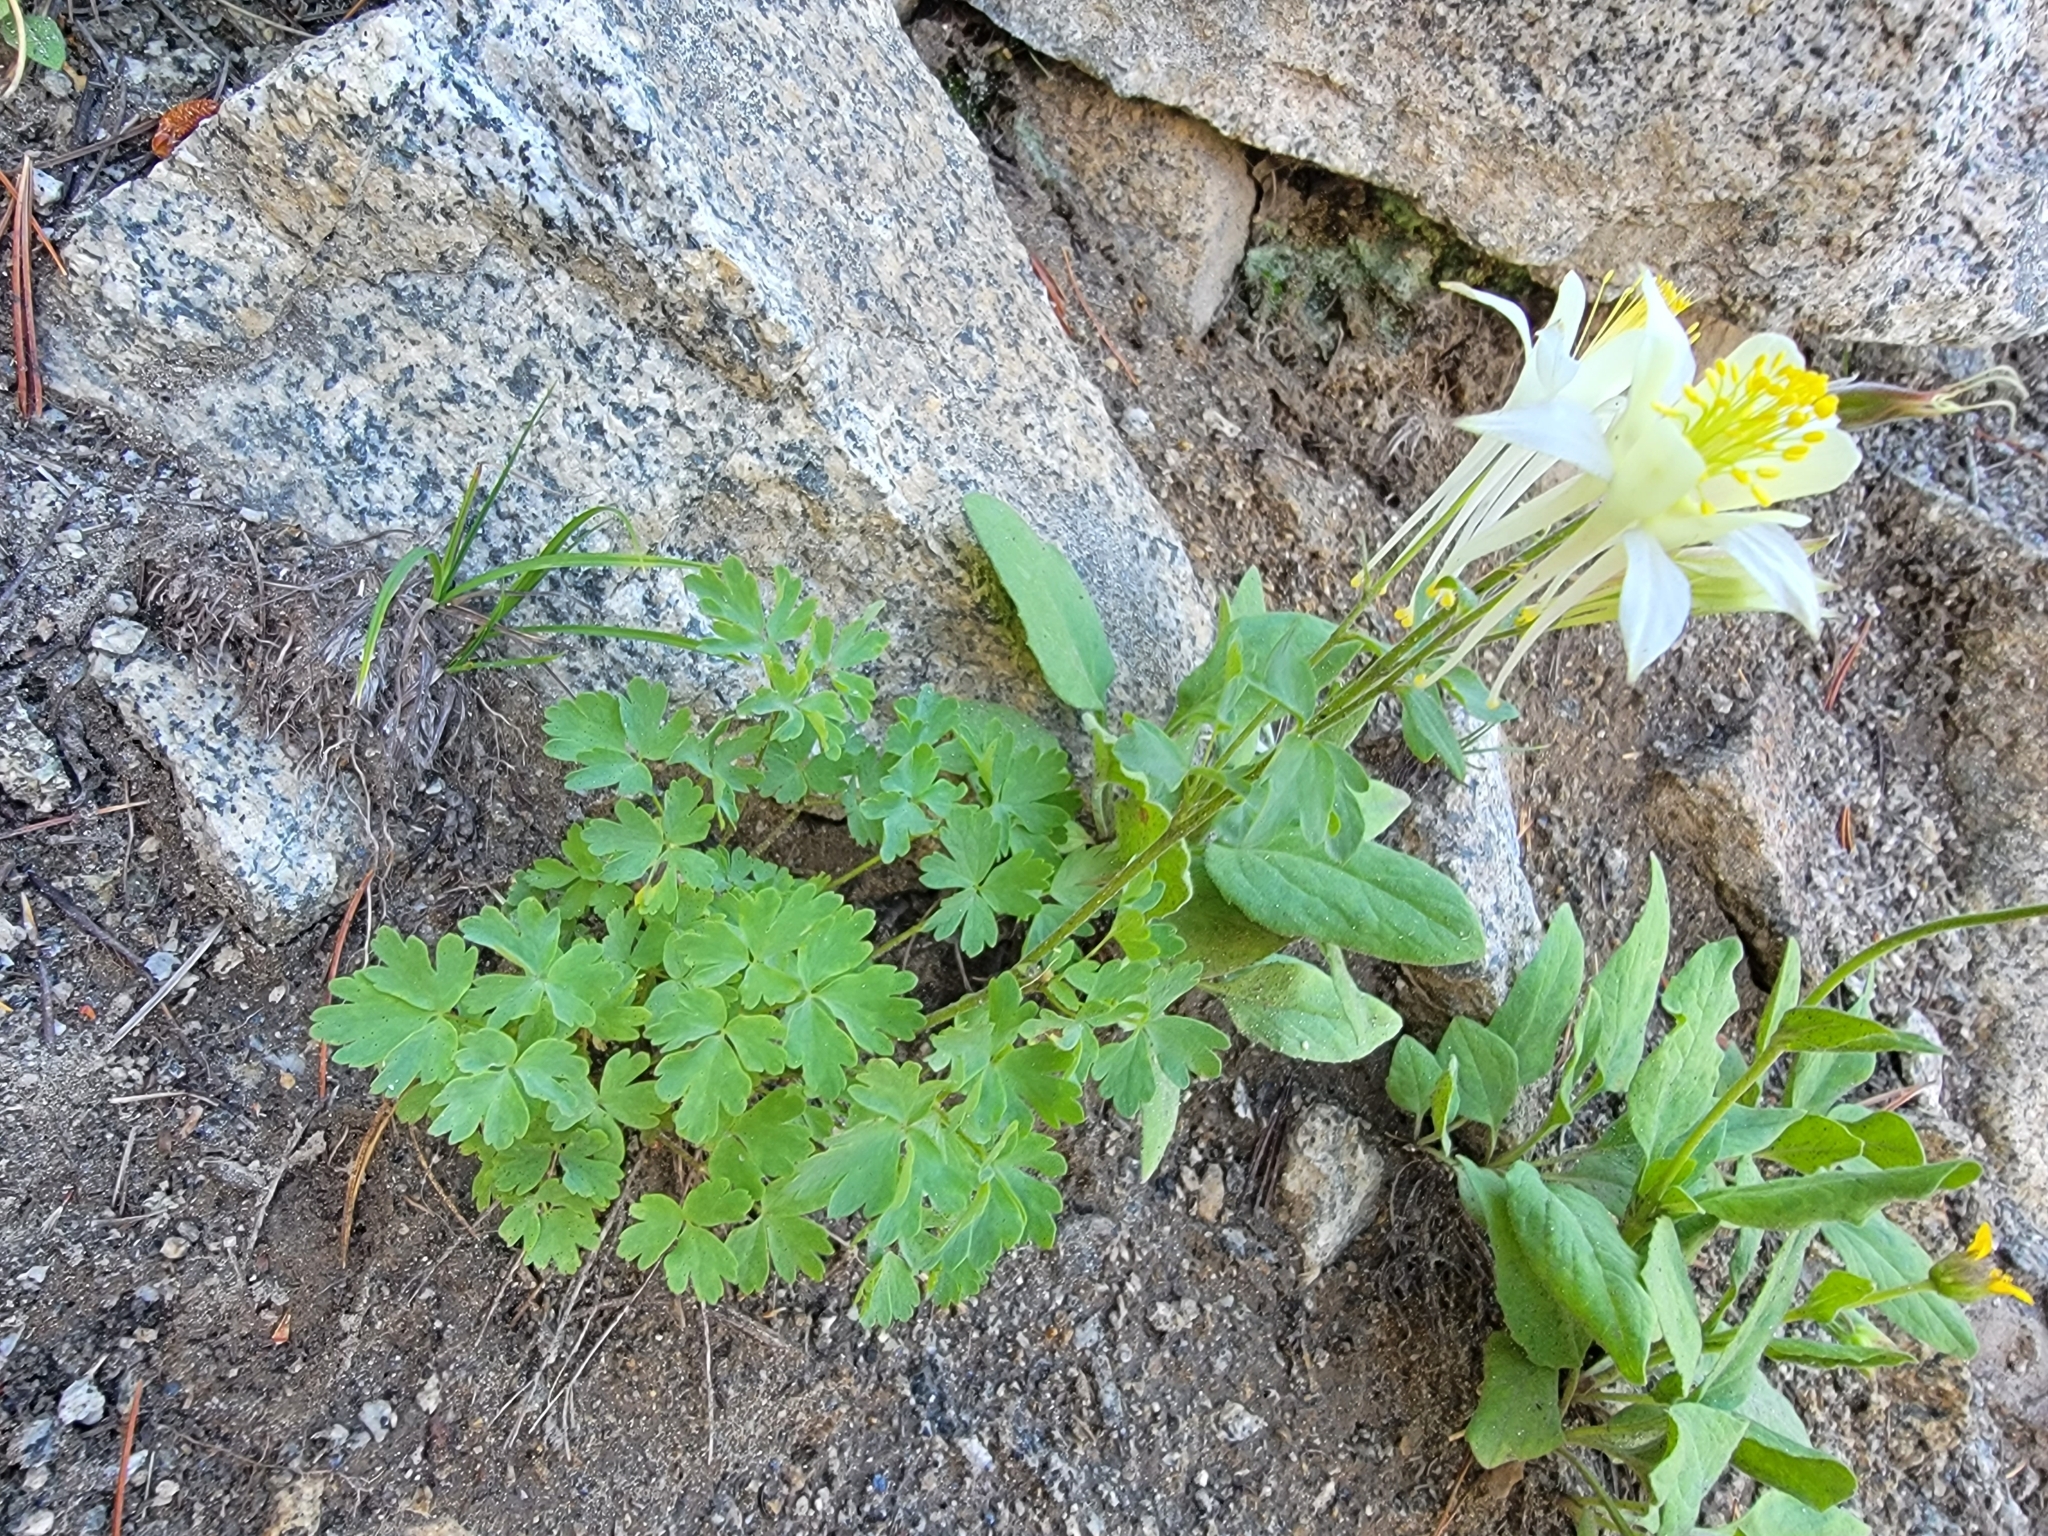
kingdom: Plantae
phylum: Tracheophyta
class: Magnoliopsida
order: Ranunculales
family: Ranunculaceae
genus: Aquilegia
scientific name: Aquilegia pubescens
